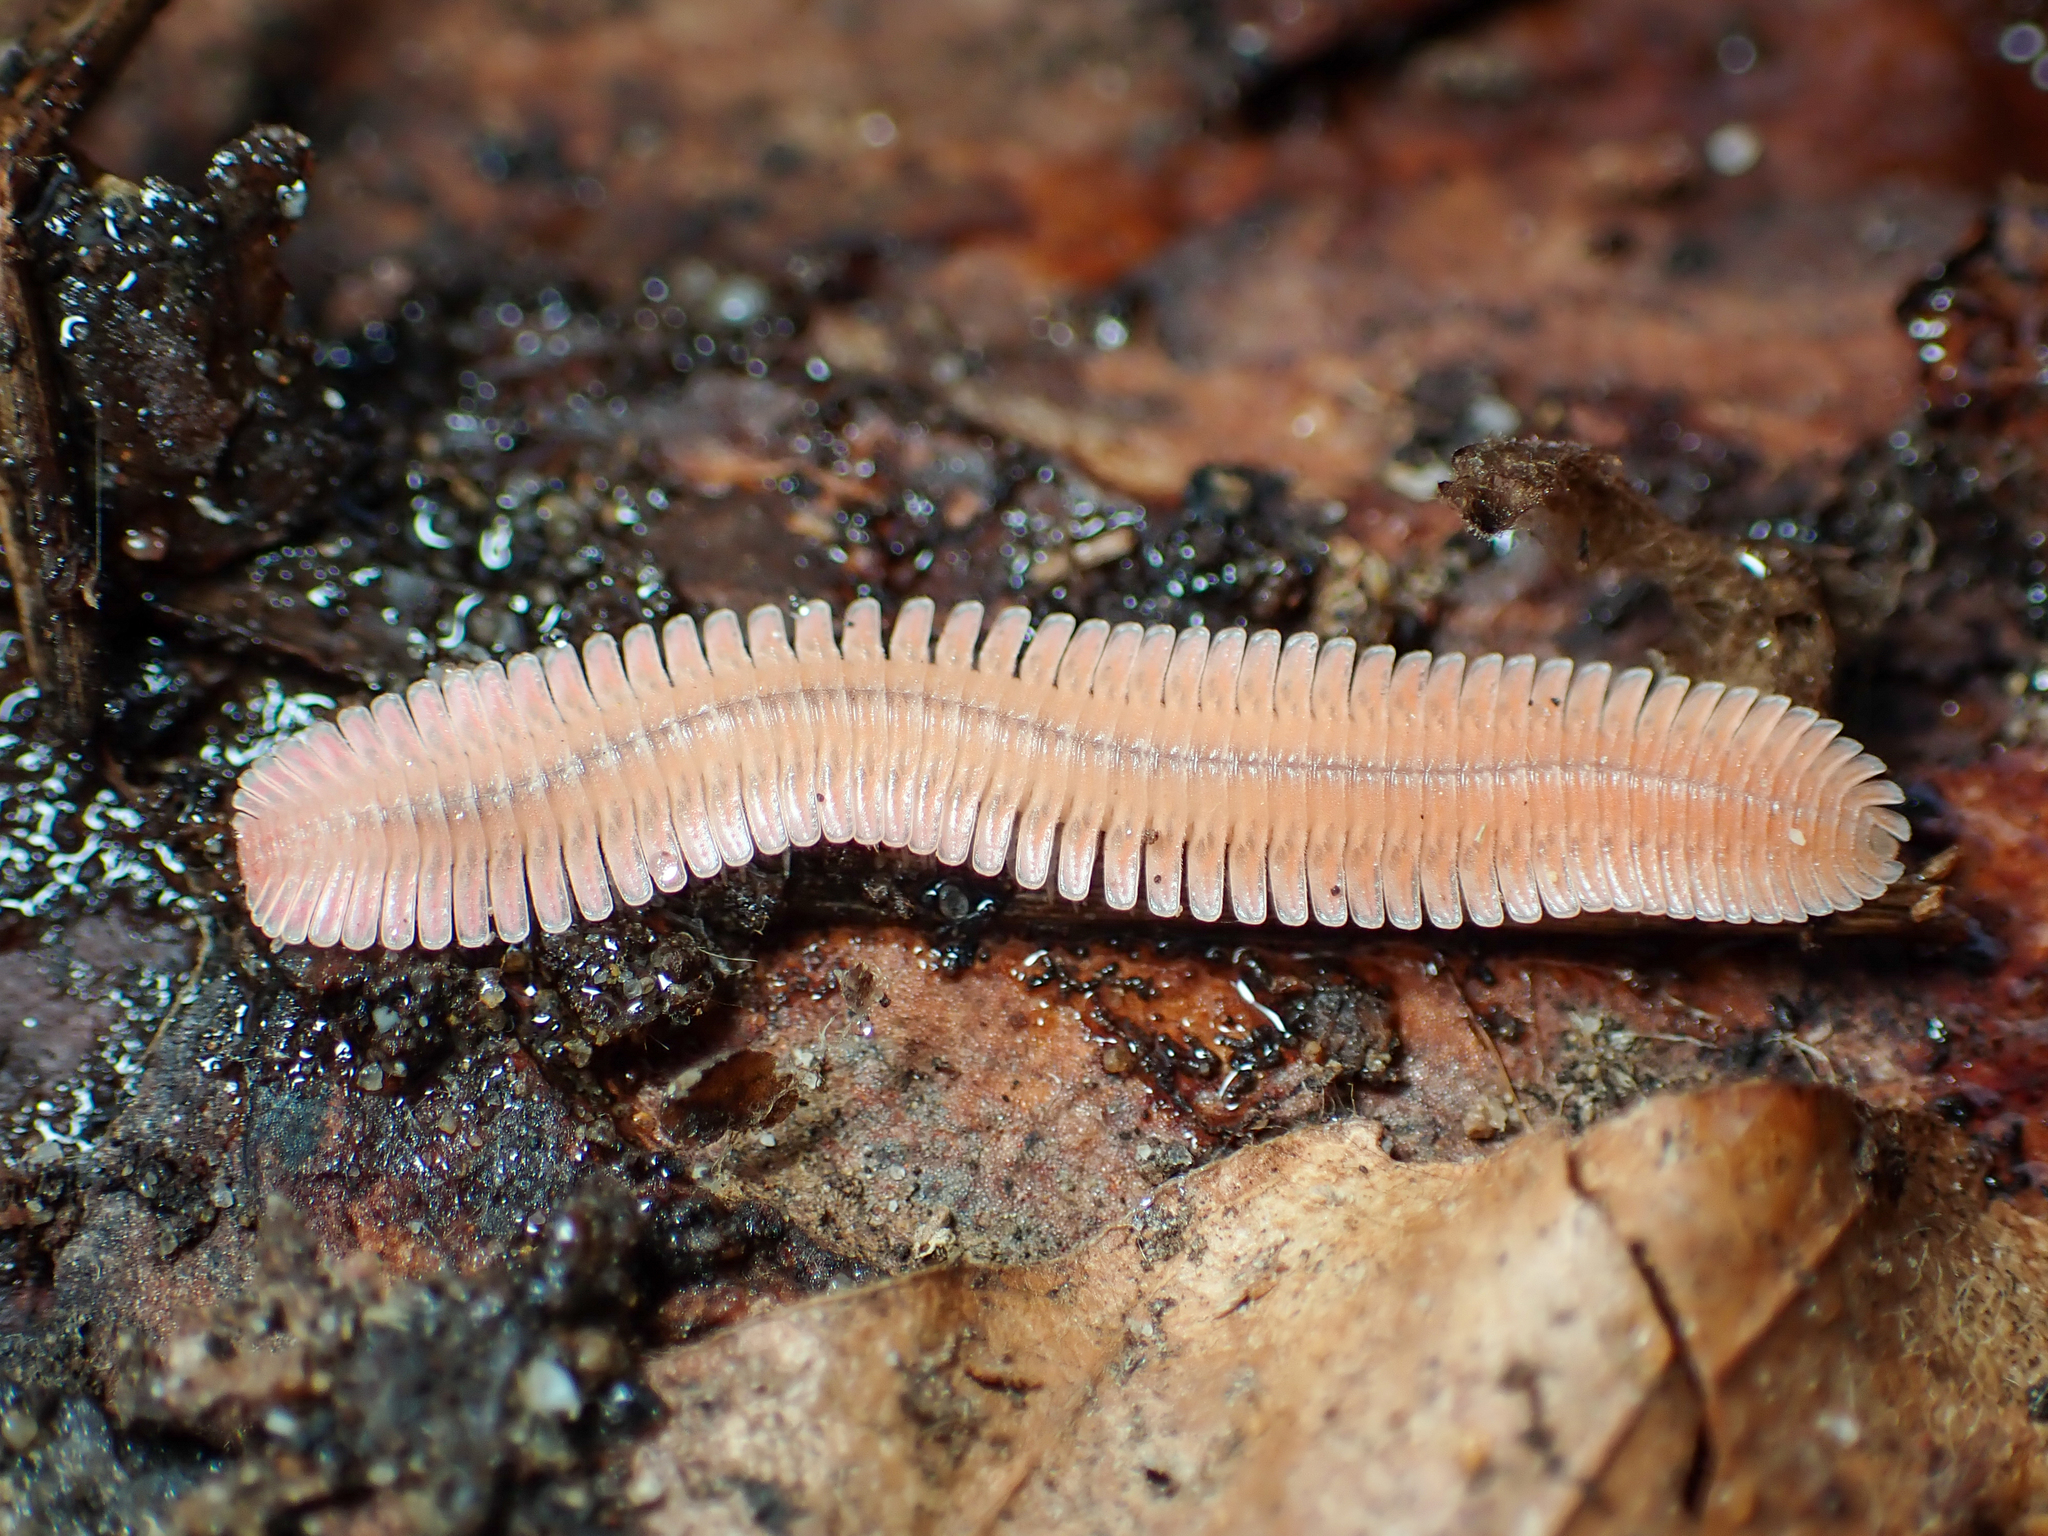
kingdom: Animalia
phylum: Arthropoda
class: Diplopoda
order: Platydesmida
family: Andrognathidae
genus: Brachycybe
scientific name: Brachycybe lecontii
